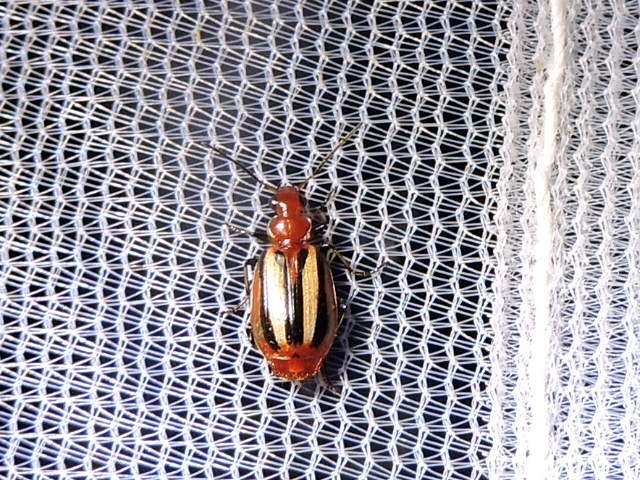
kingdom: Animalia
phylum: Arthropoda
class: Insecta
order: Coleoptera
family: Carabidae
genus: Lebia
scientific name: Lebia vittata
